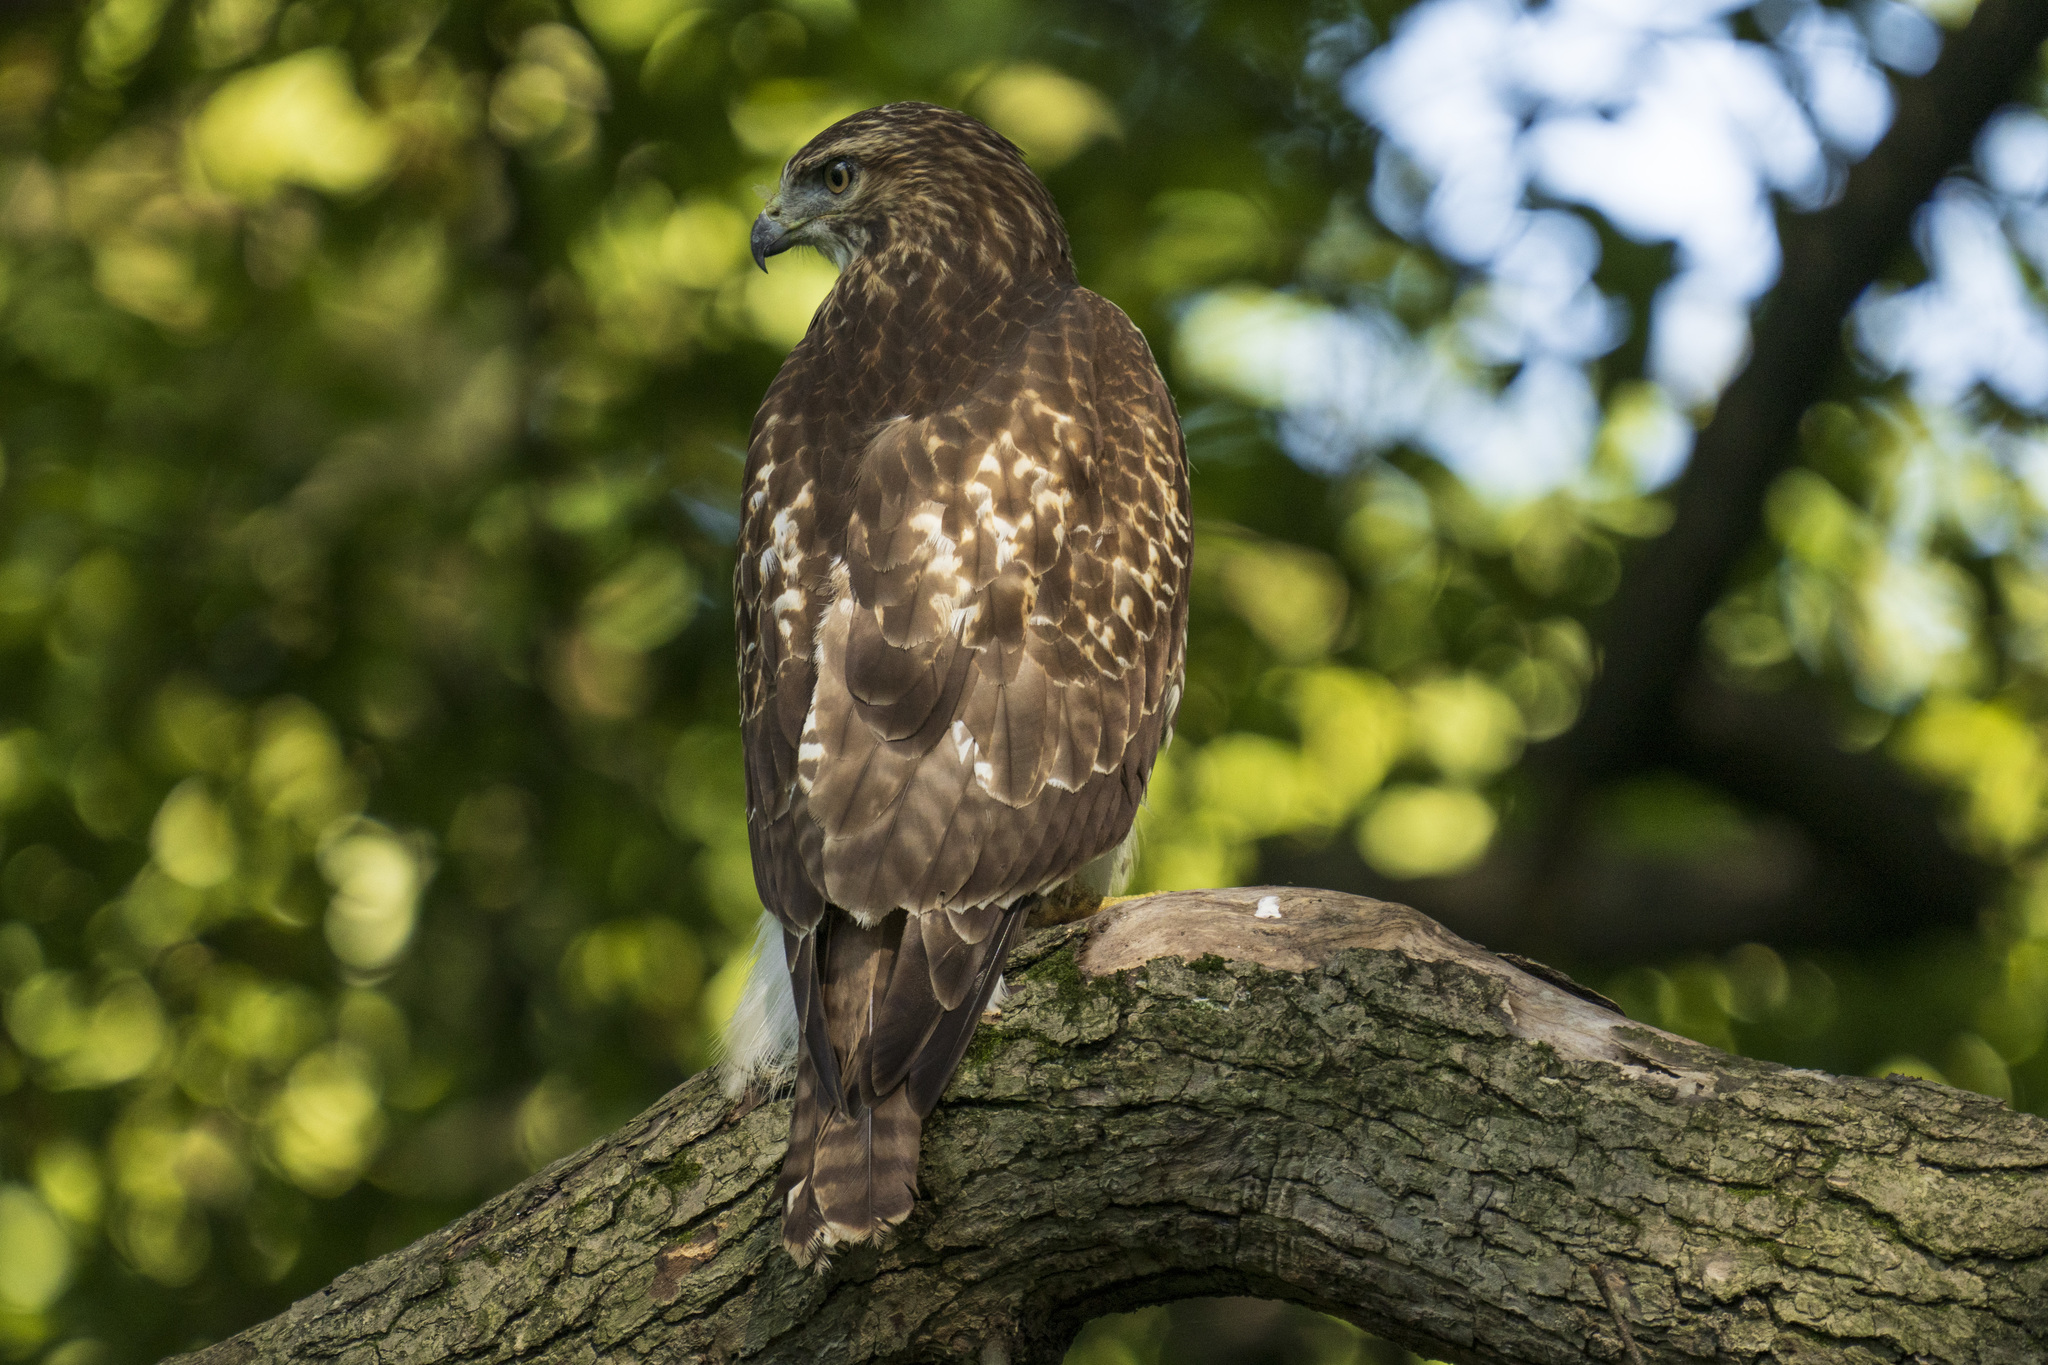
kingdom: Animalia
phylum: Chordata
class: Aves
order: Accipitriformes
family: Accipitridae
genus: Buteo
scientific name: Buteo jamaicensis
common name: Red-tailed hawk
